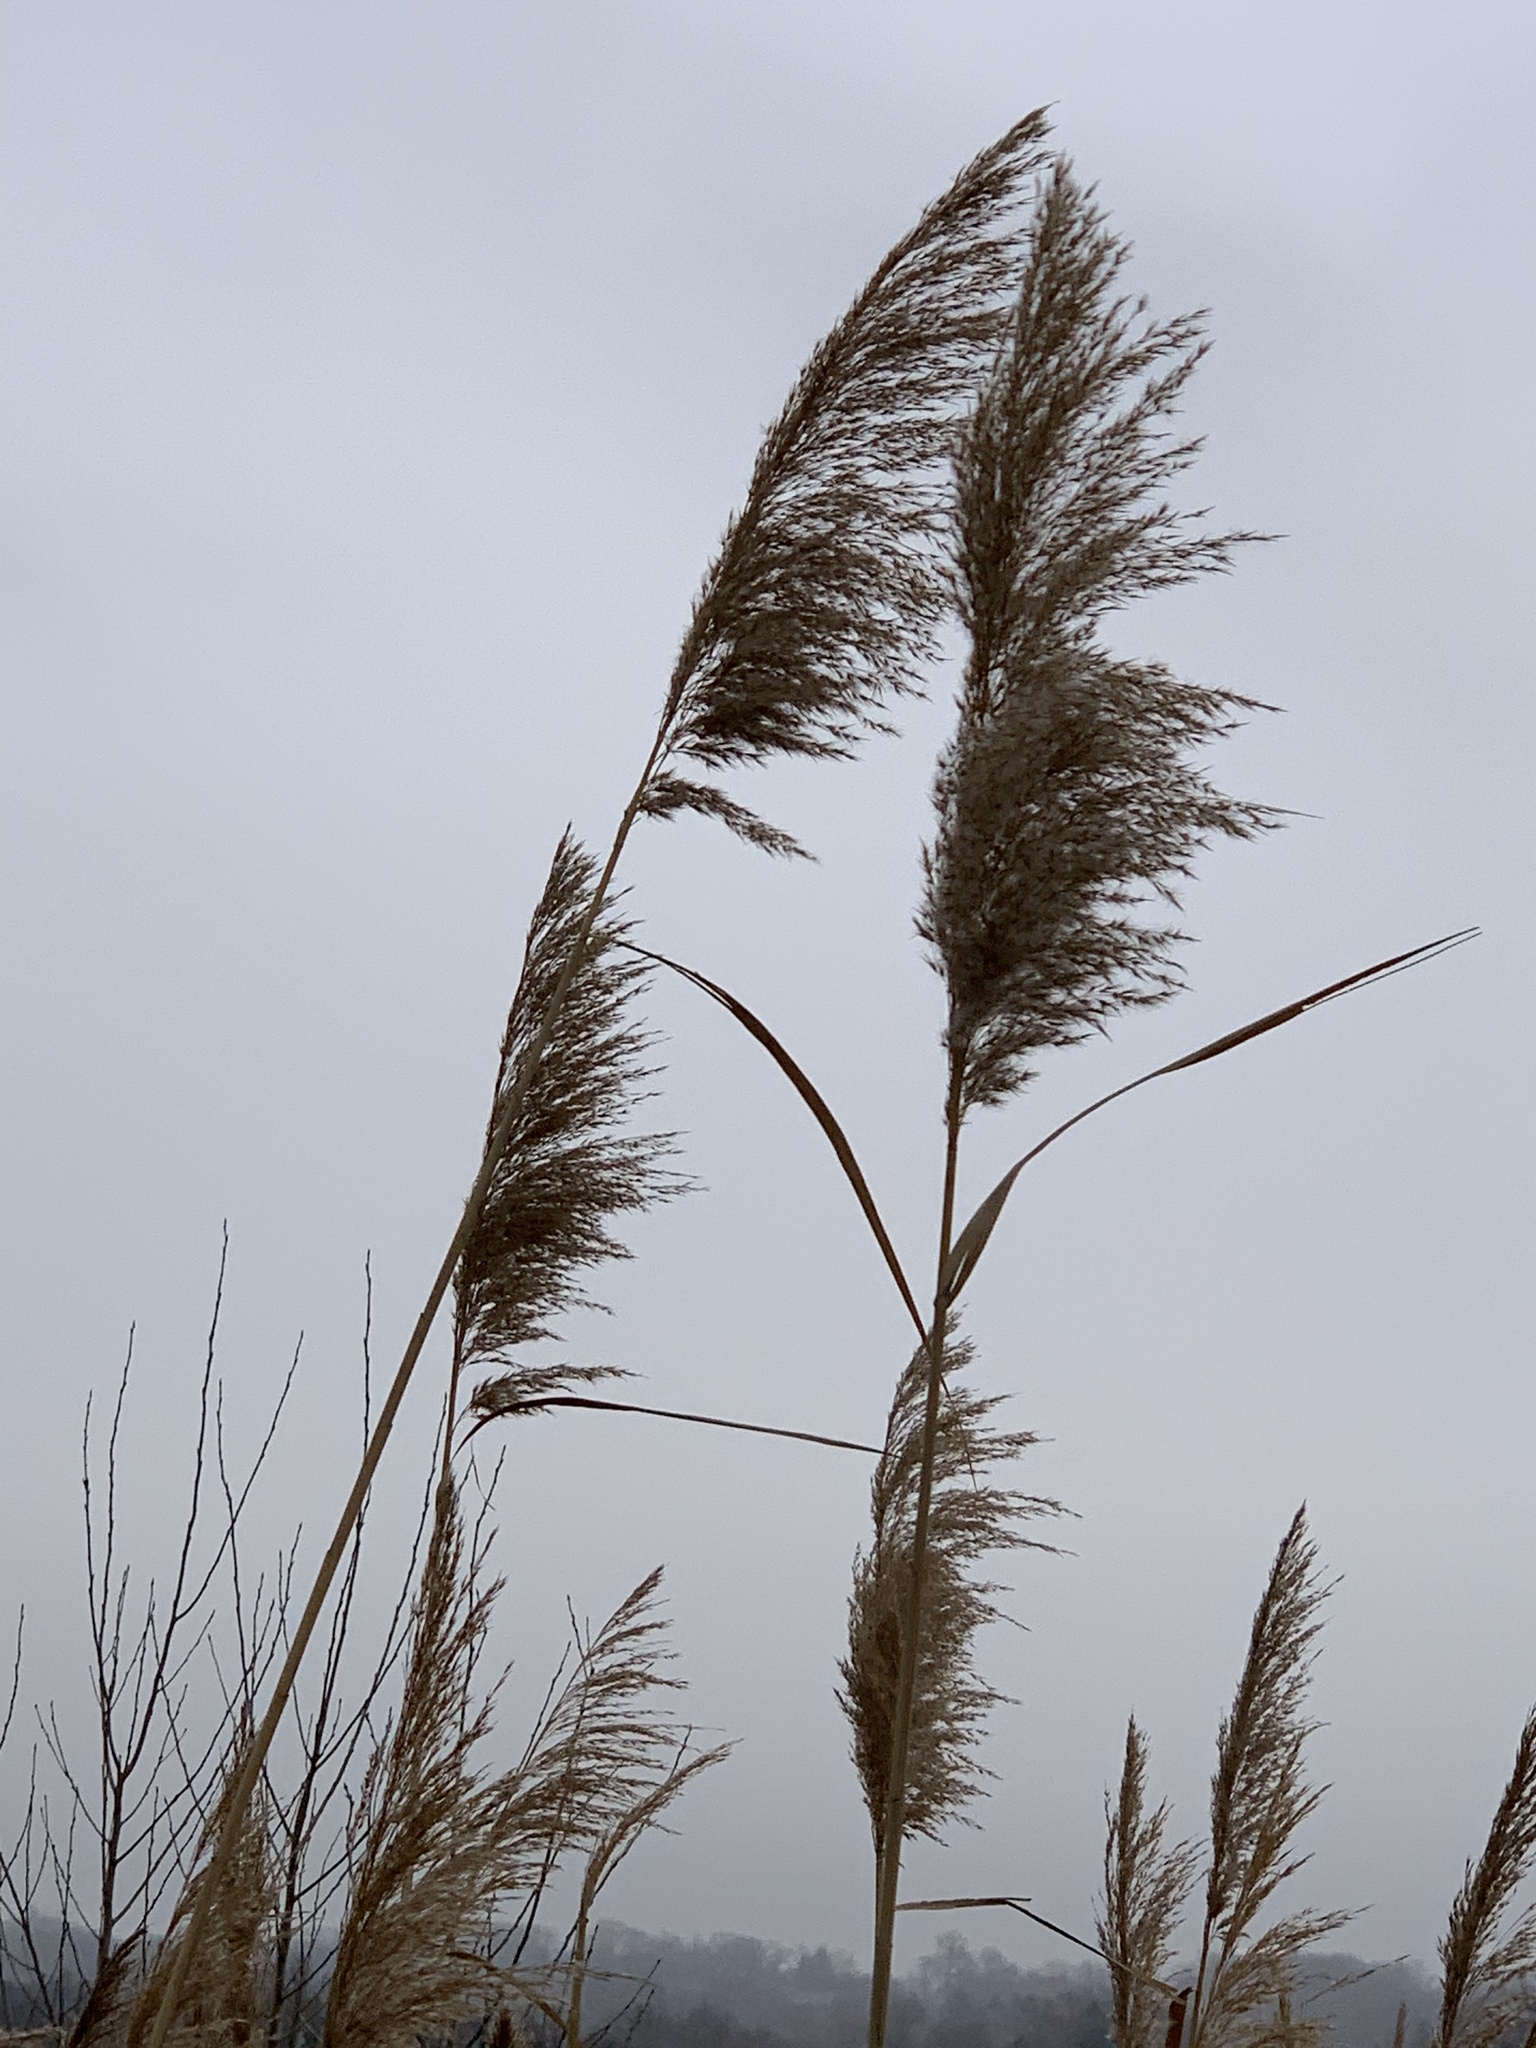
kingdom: Plantae
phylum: Tracheophyta
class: Liliopsida
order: Poales
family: Poaceae
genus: Phragmites
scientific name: Phragmites australis
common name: Common reed
